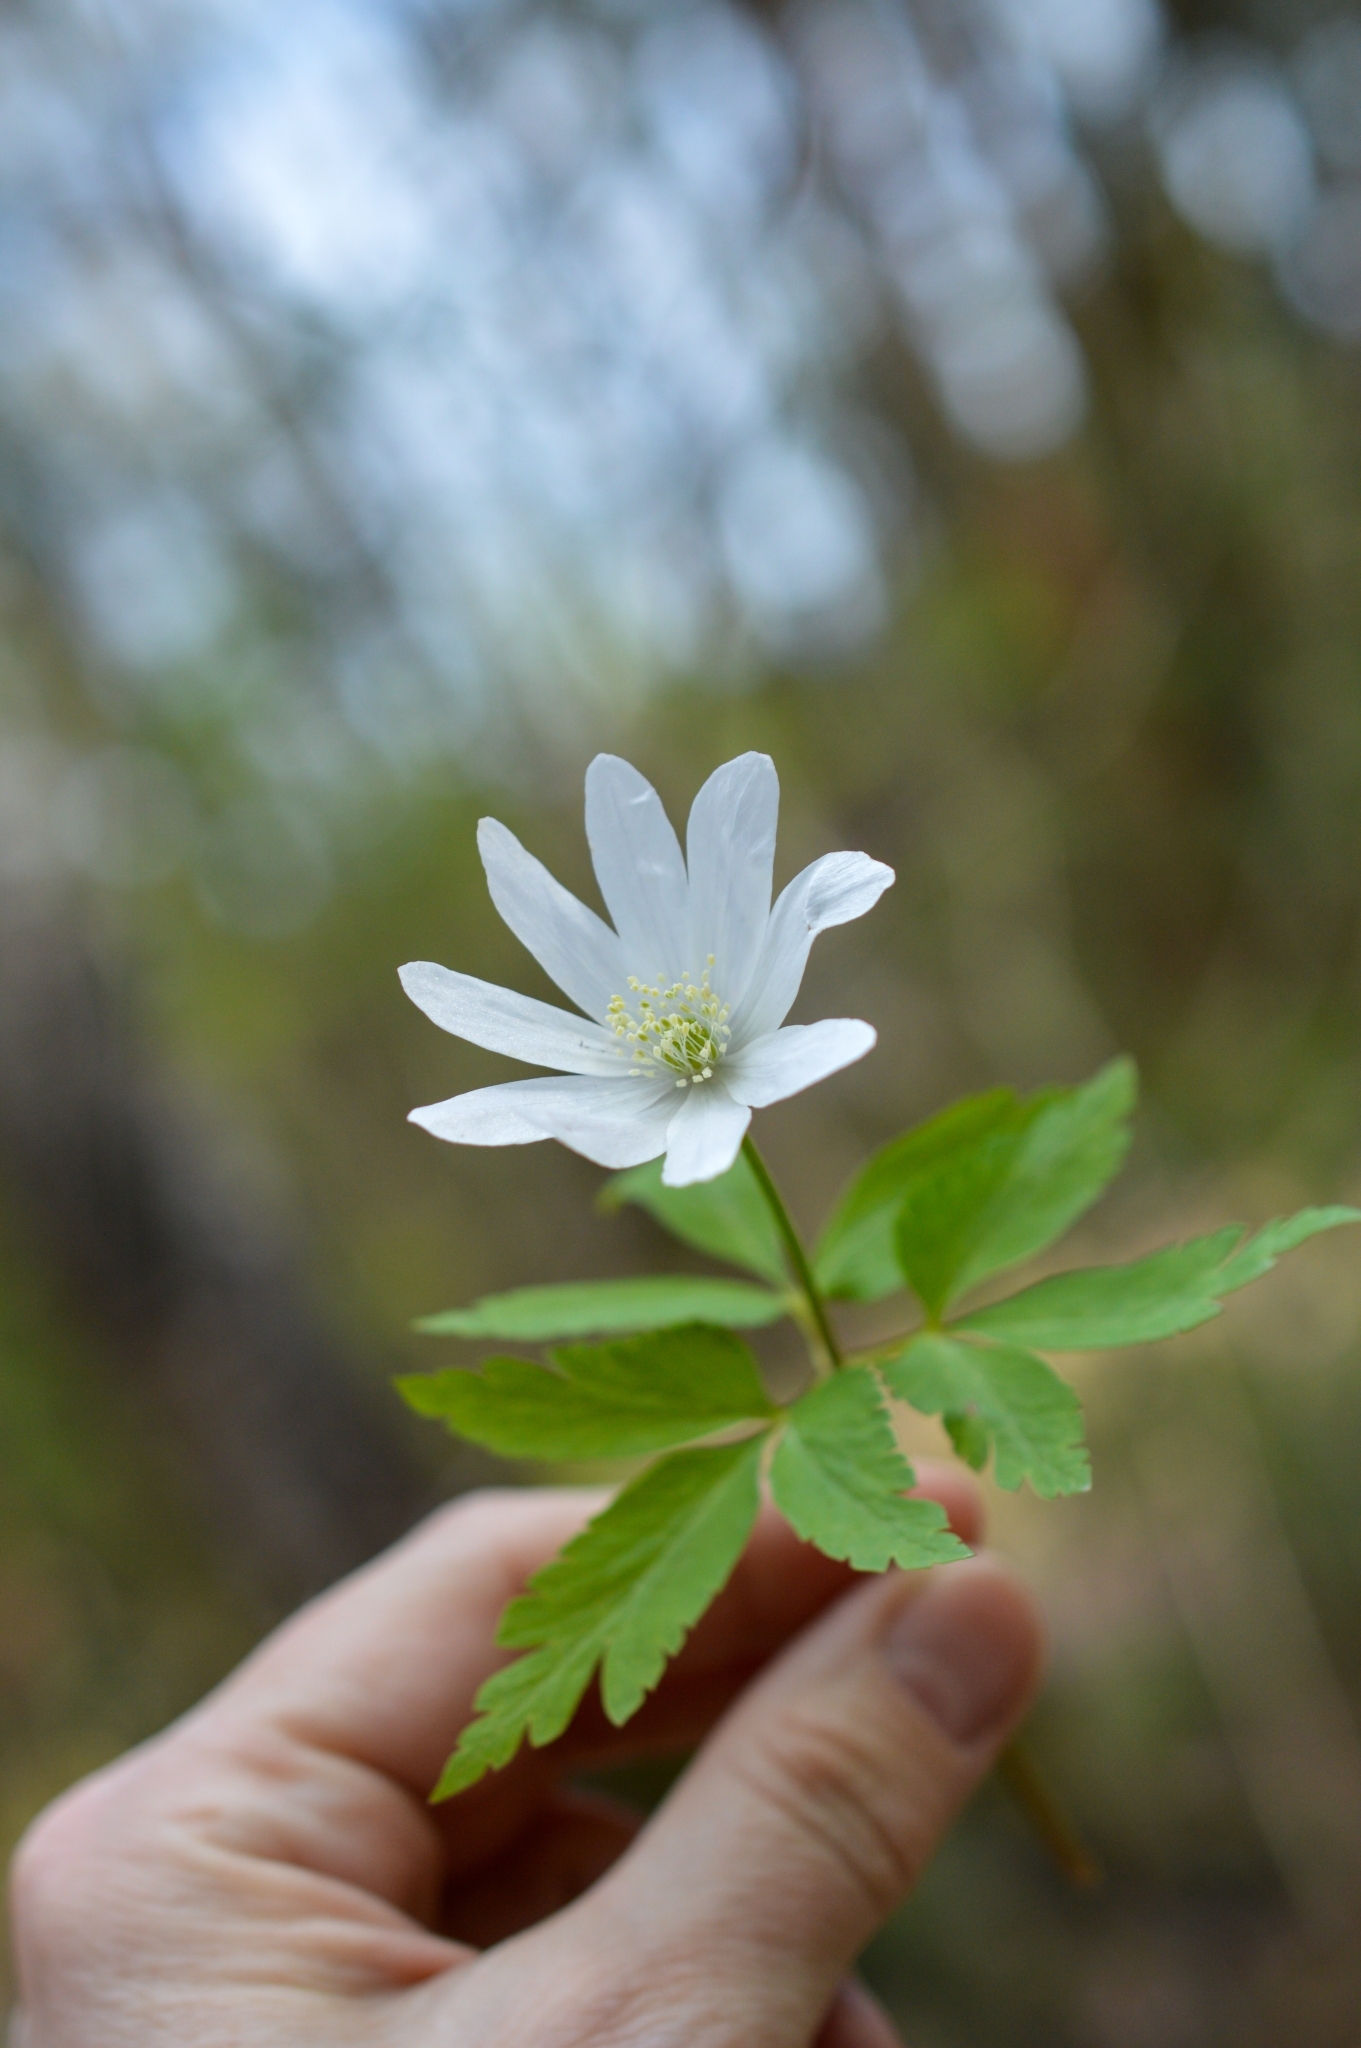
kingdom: Plantae
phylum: Tracheophyta
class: Magnoliopsida
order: Ranunculales
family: Ranunculaceae
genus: Anemone
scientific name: Anemone altaica
